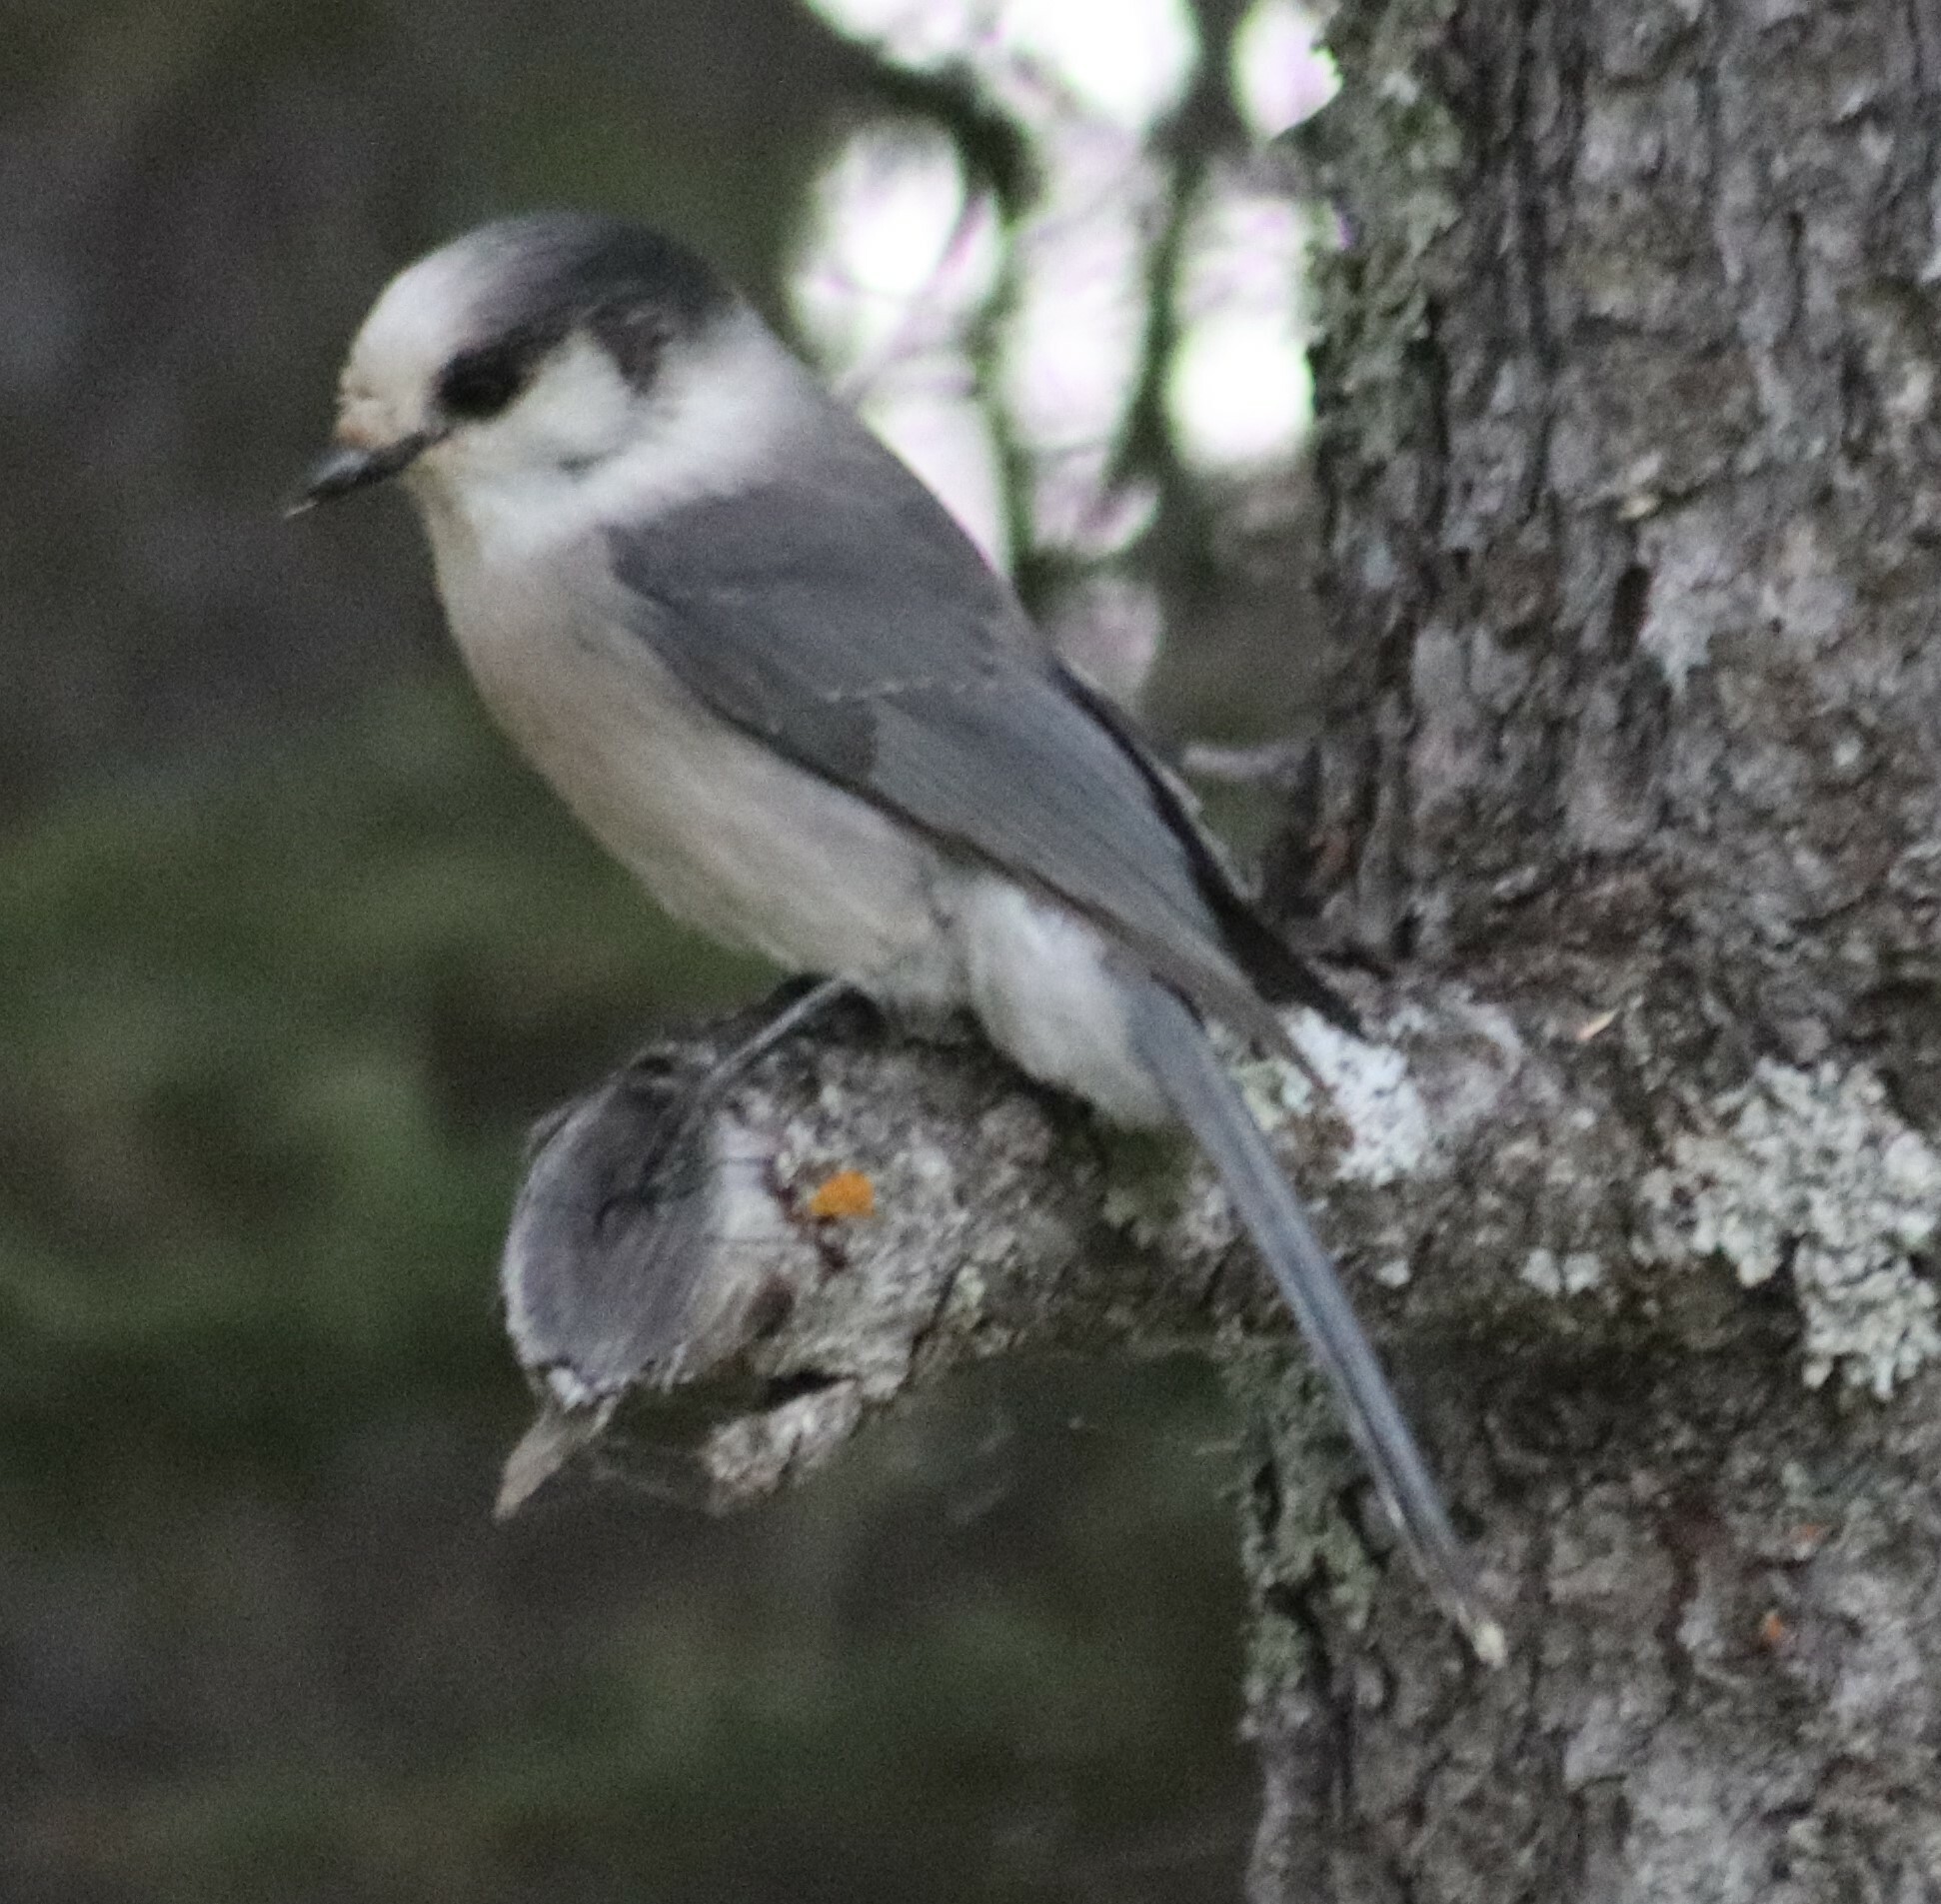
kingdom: Animalia
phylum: Chordata
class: Aves
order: Passeriformes
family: Corvidae
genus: Perisoreus
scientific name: Perisoreus canadensis
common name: Gray jay
